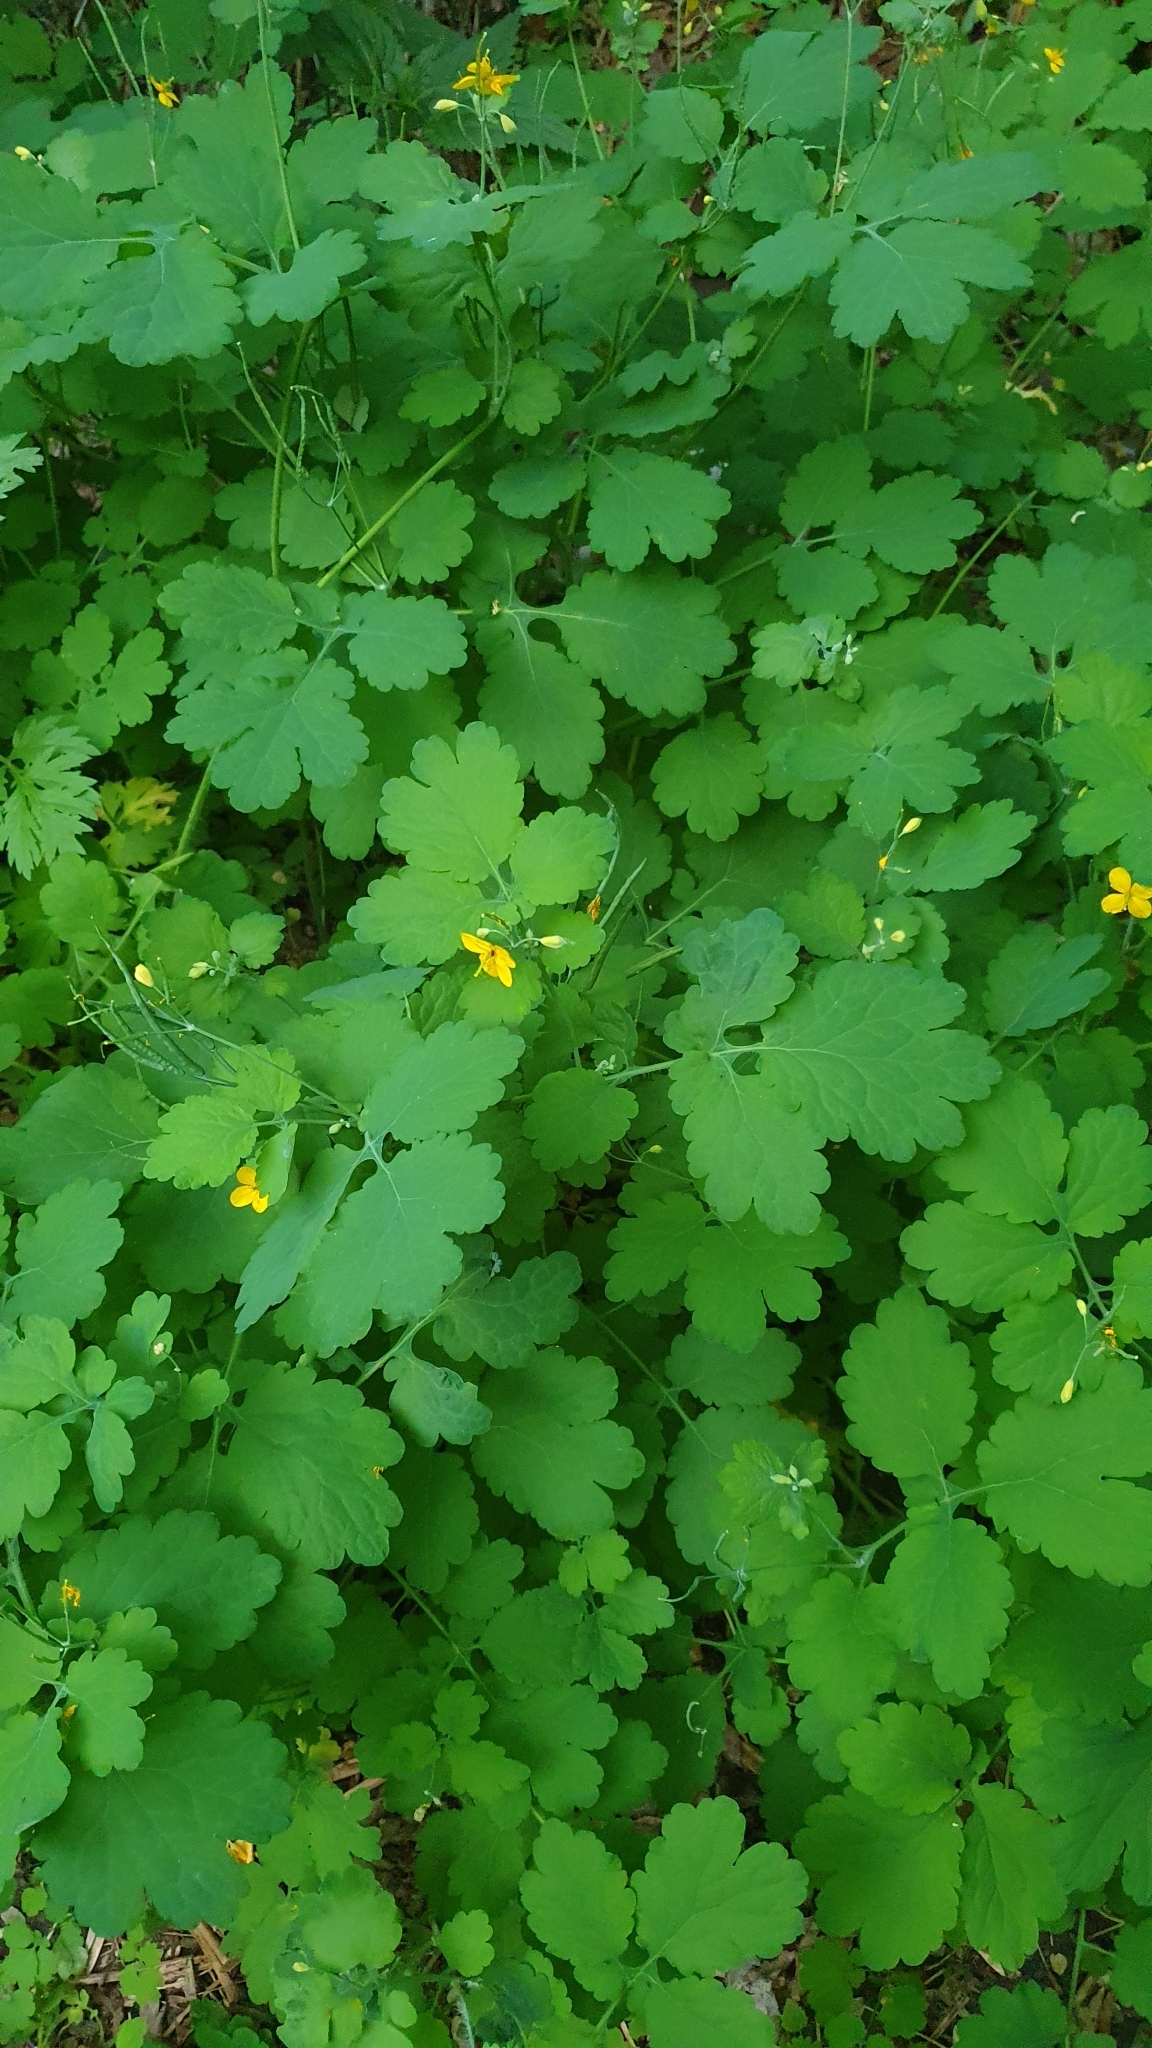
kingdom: Plantae
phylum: Tracheophyta
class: Magnoliopsida
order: Ranunculales
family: Papaveraceae
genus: Chelidonium
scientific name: Chelidonium majus
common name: Greater celandine
